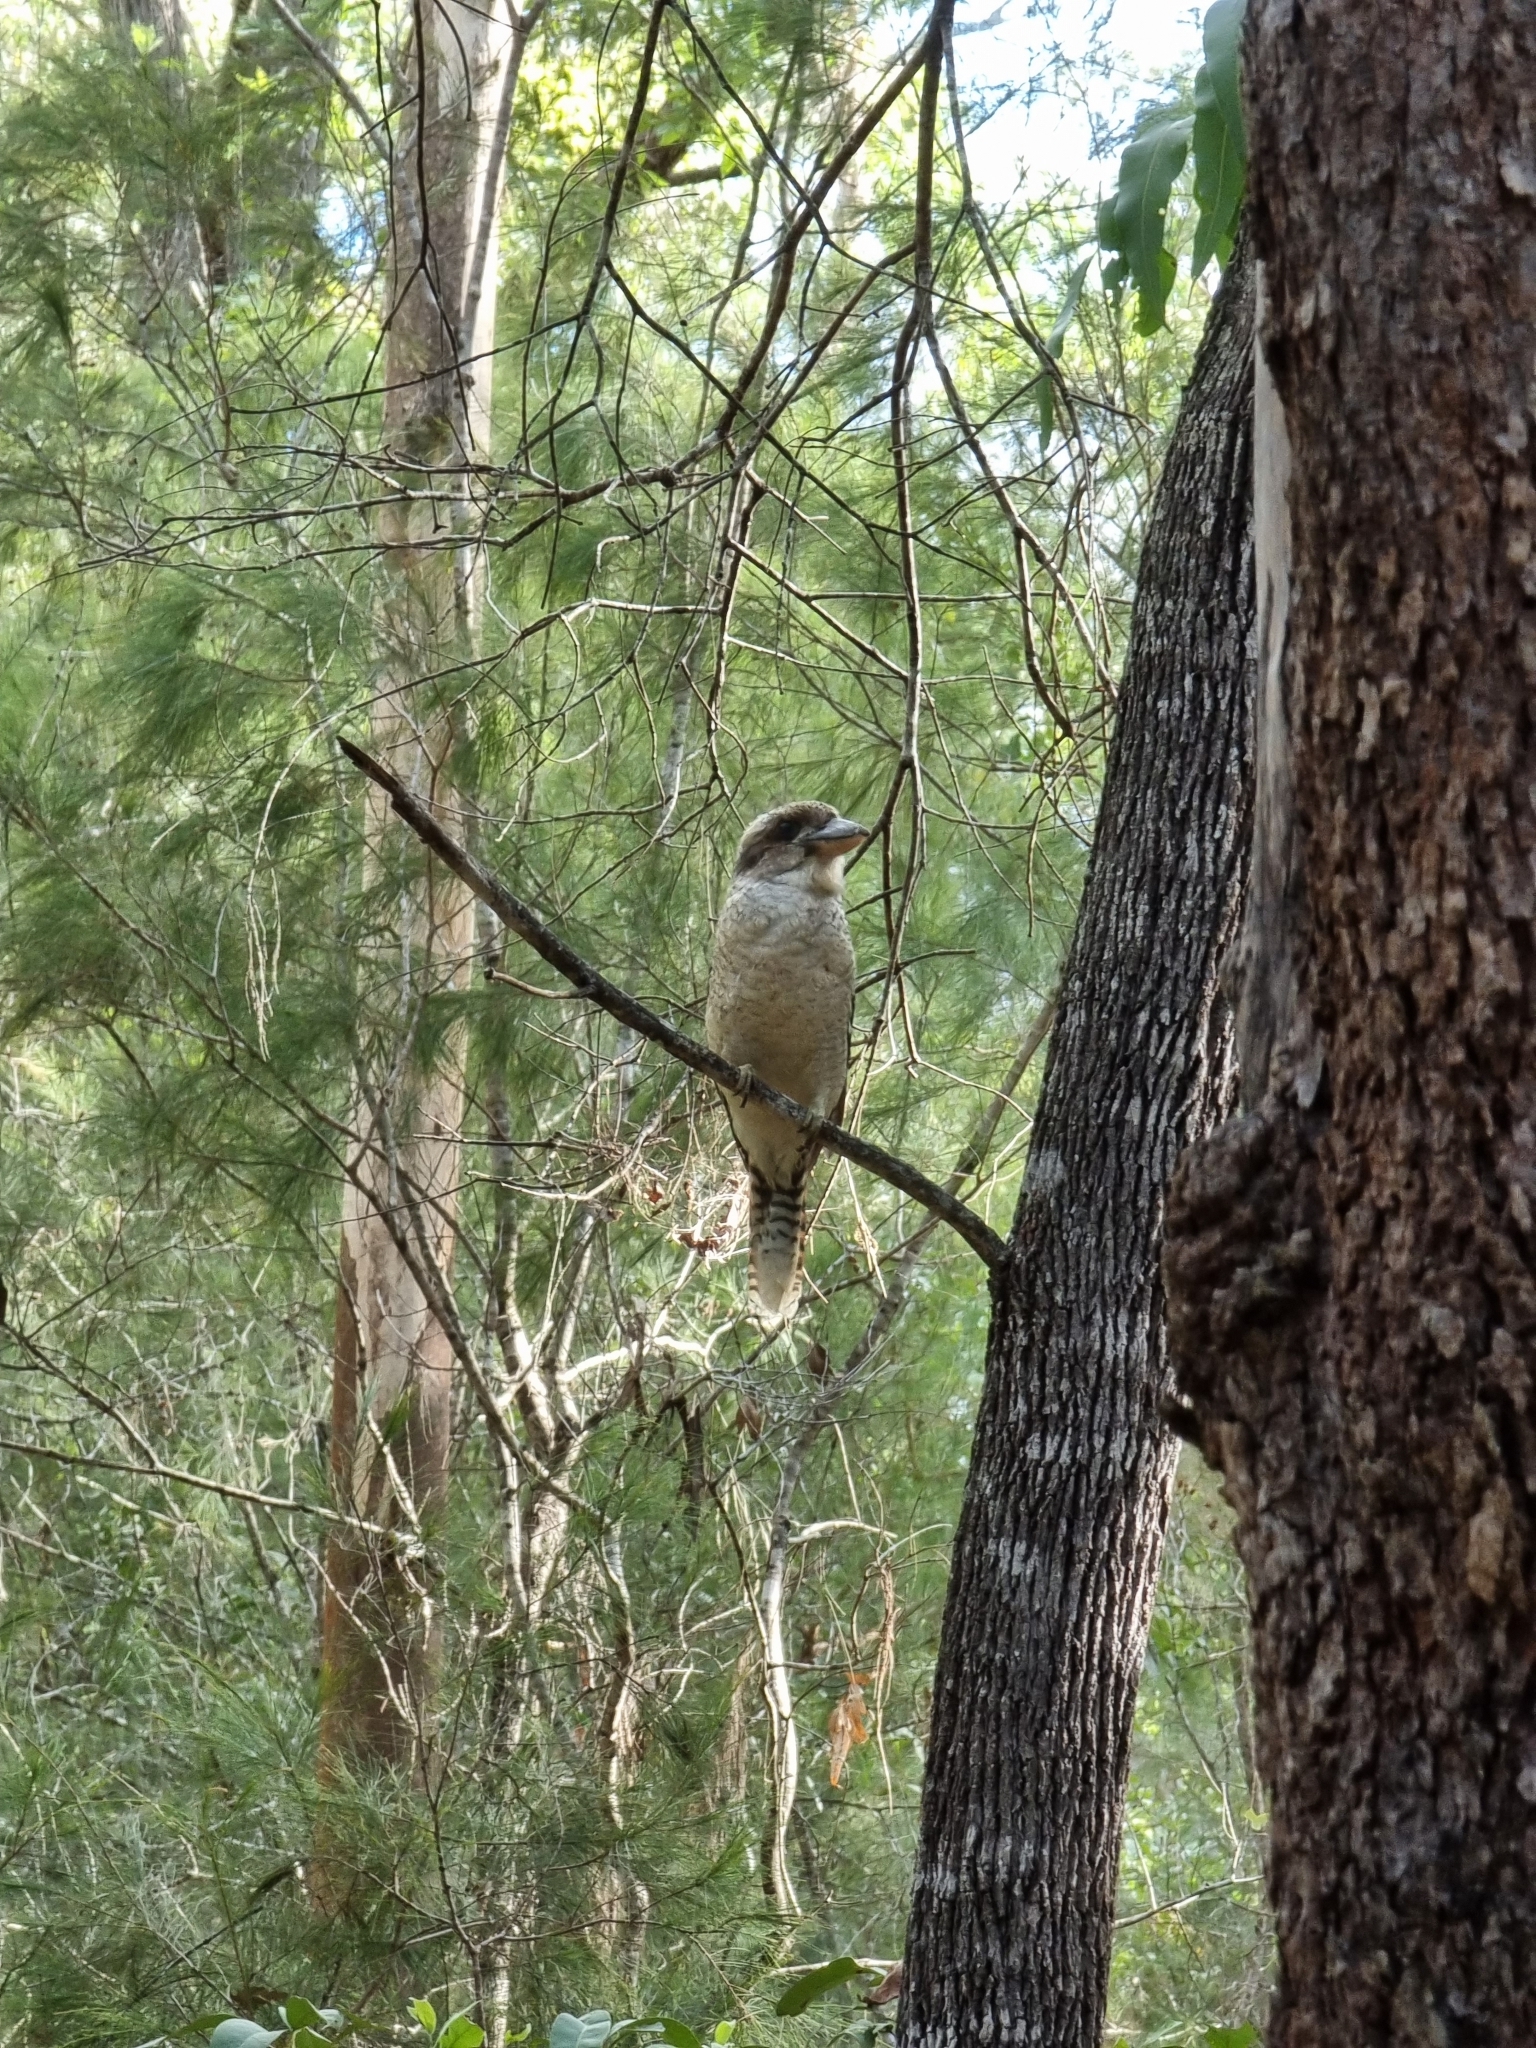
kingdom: Animalia
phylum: Chordata
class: Aves
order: Coraciiformes
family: Alcedinidae
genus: Dacelo
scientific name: Dacelo novaeguineae
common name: Laughing kookaburra
